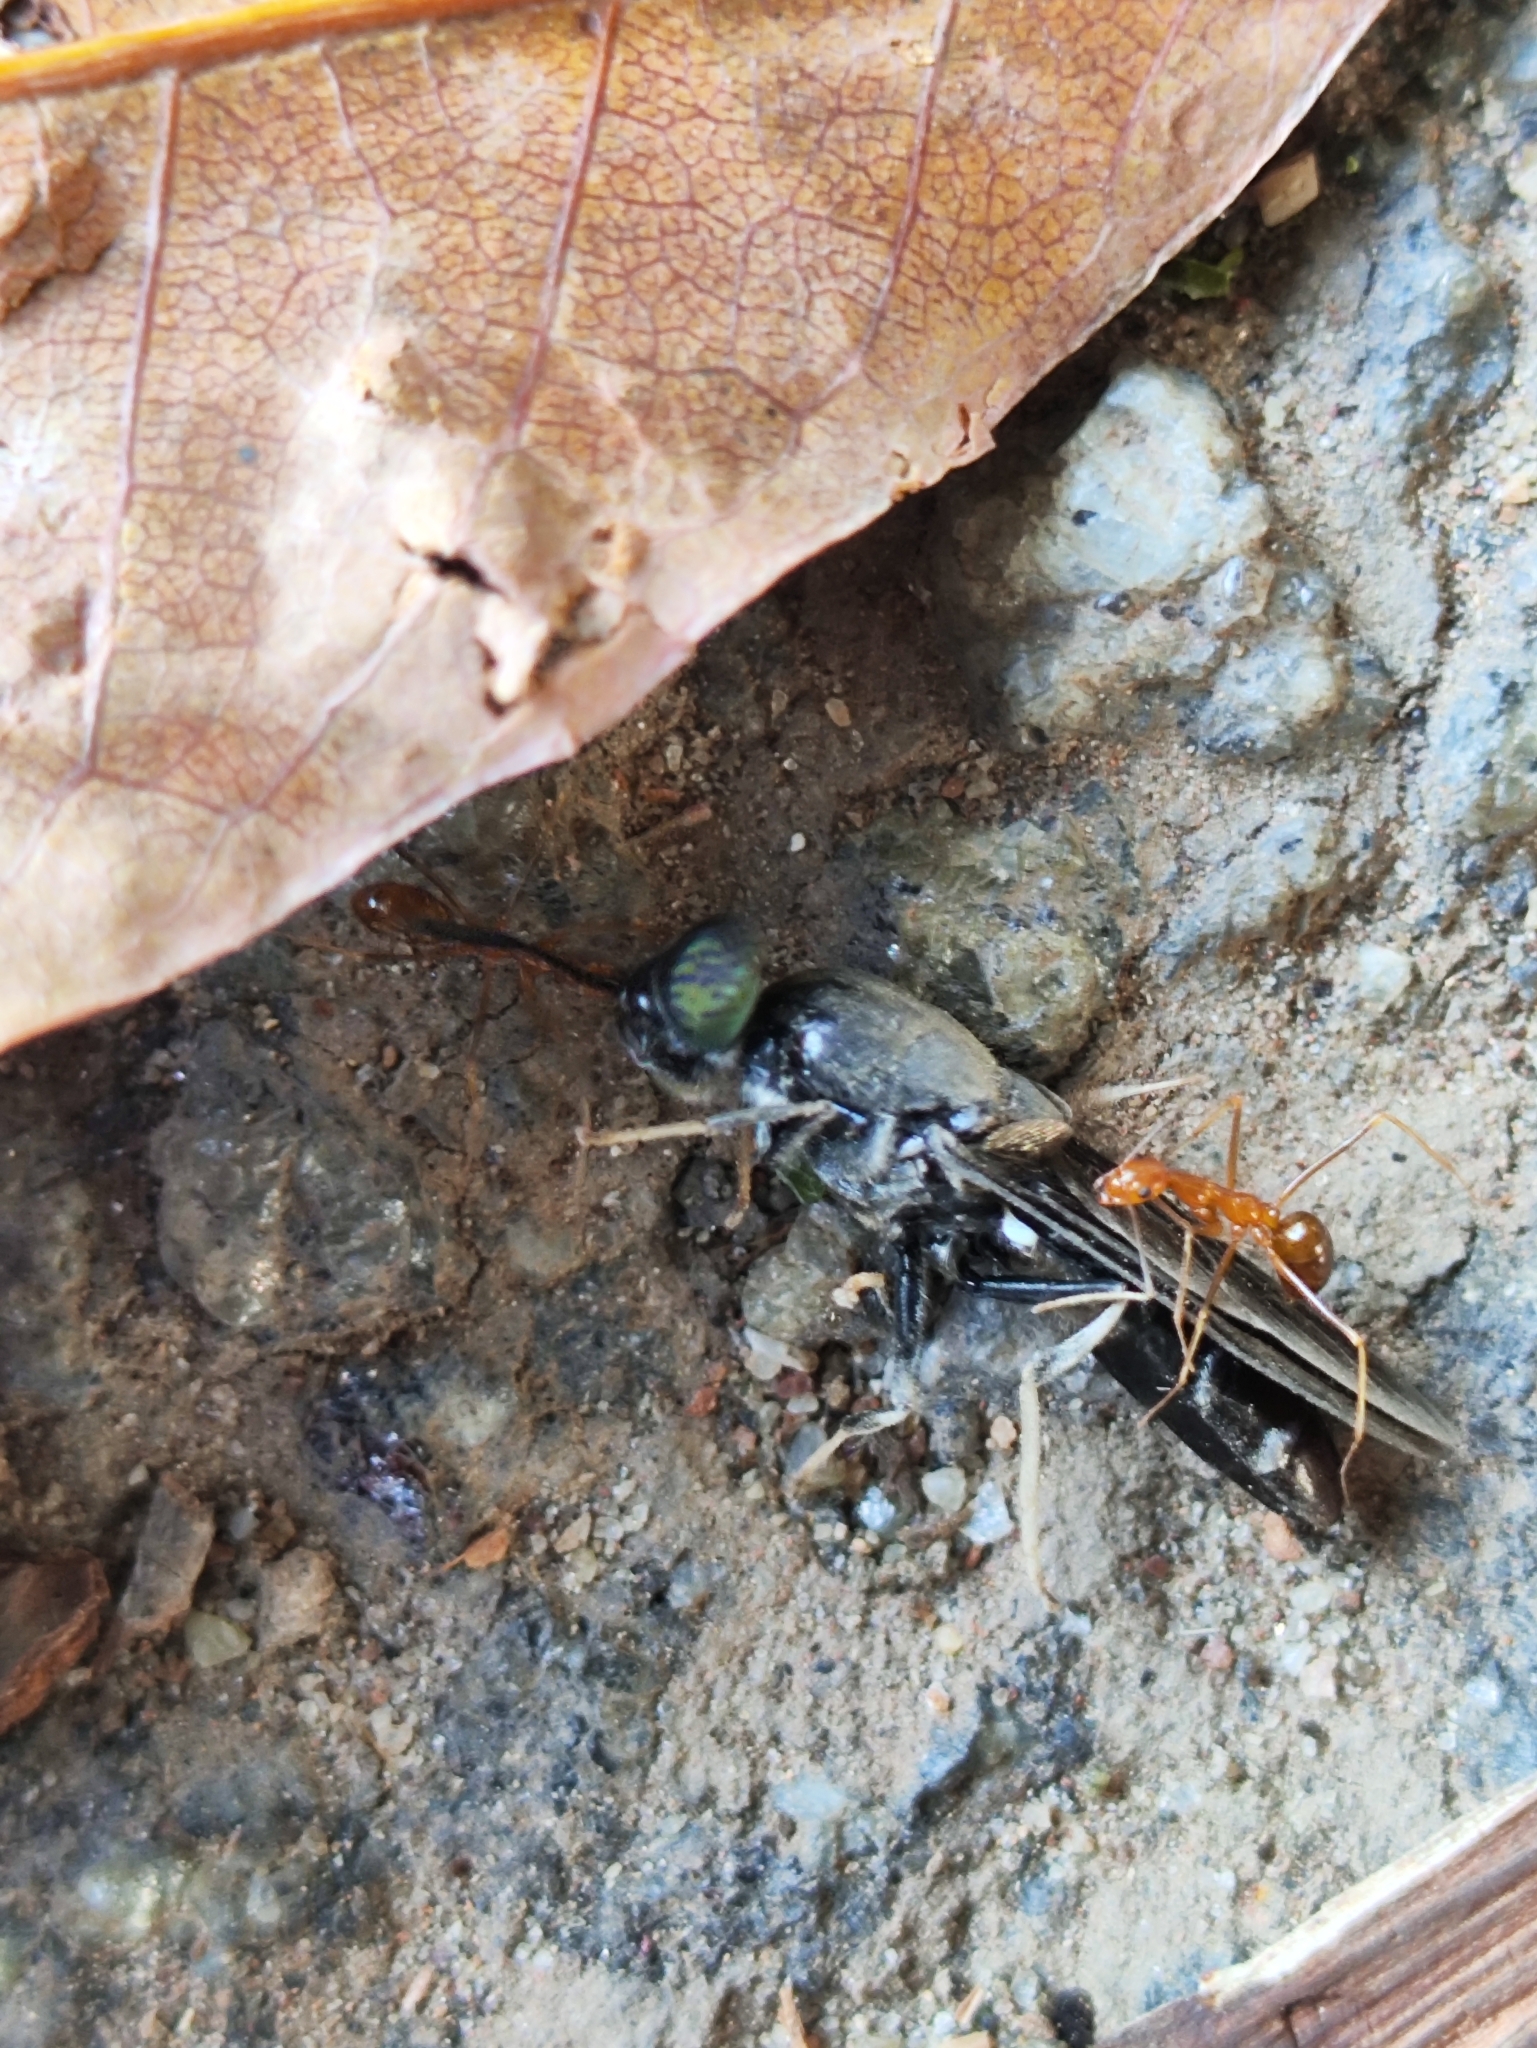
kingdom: Animalia
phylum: Arthropoda
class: Insecta
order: Hymenoptera
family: Formicidae
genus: Anoplolepis
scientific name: Anoplolepis gracilipes
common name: Ant
